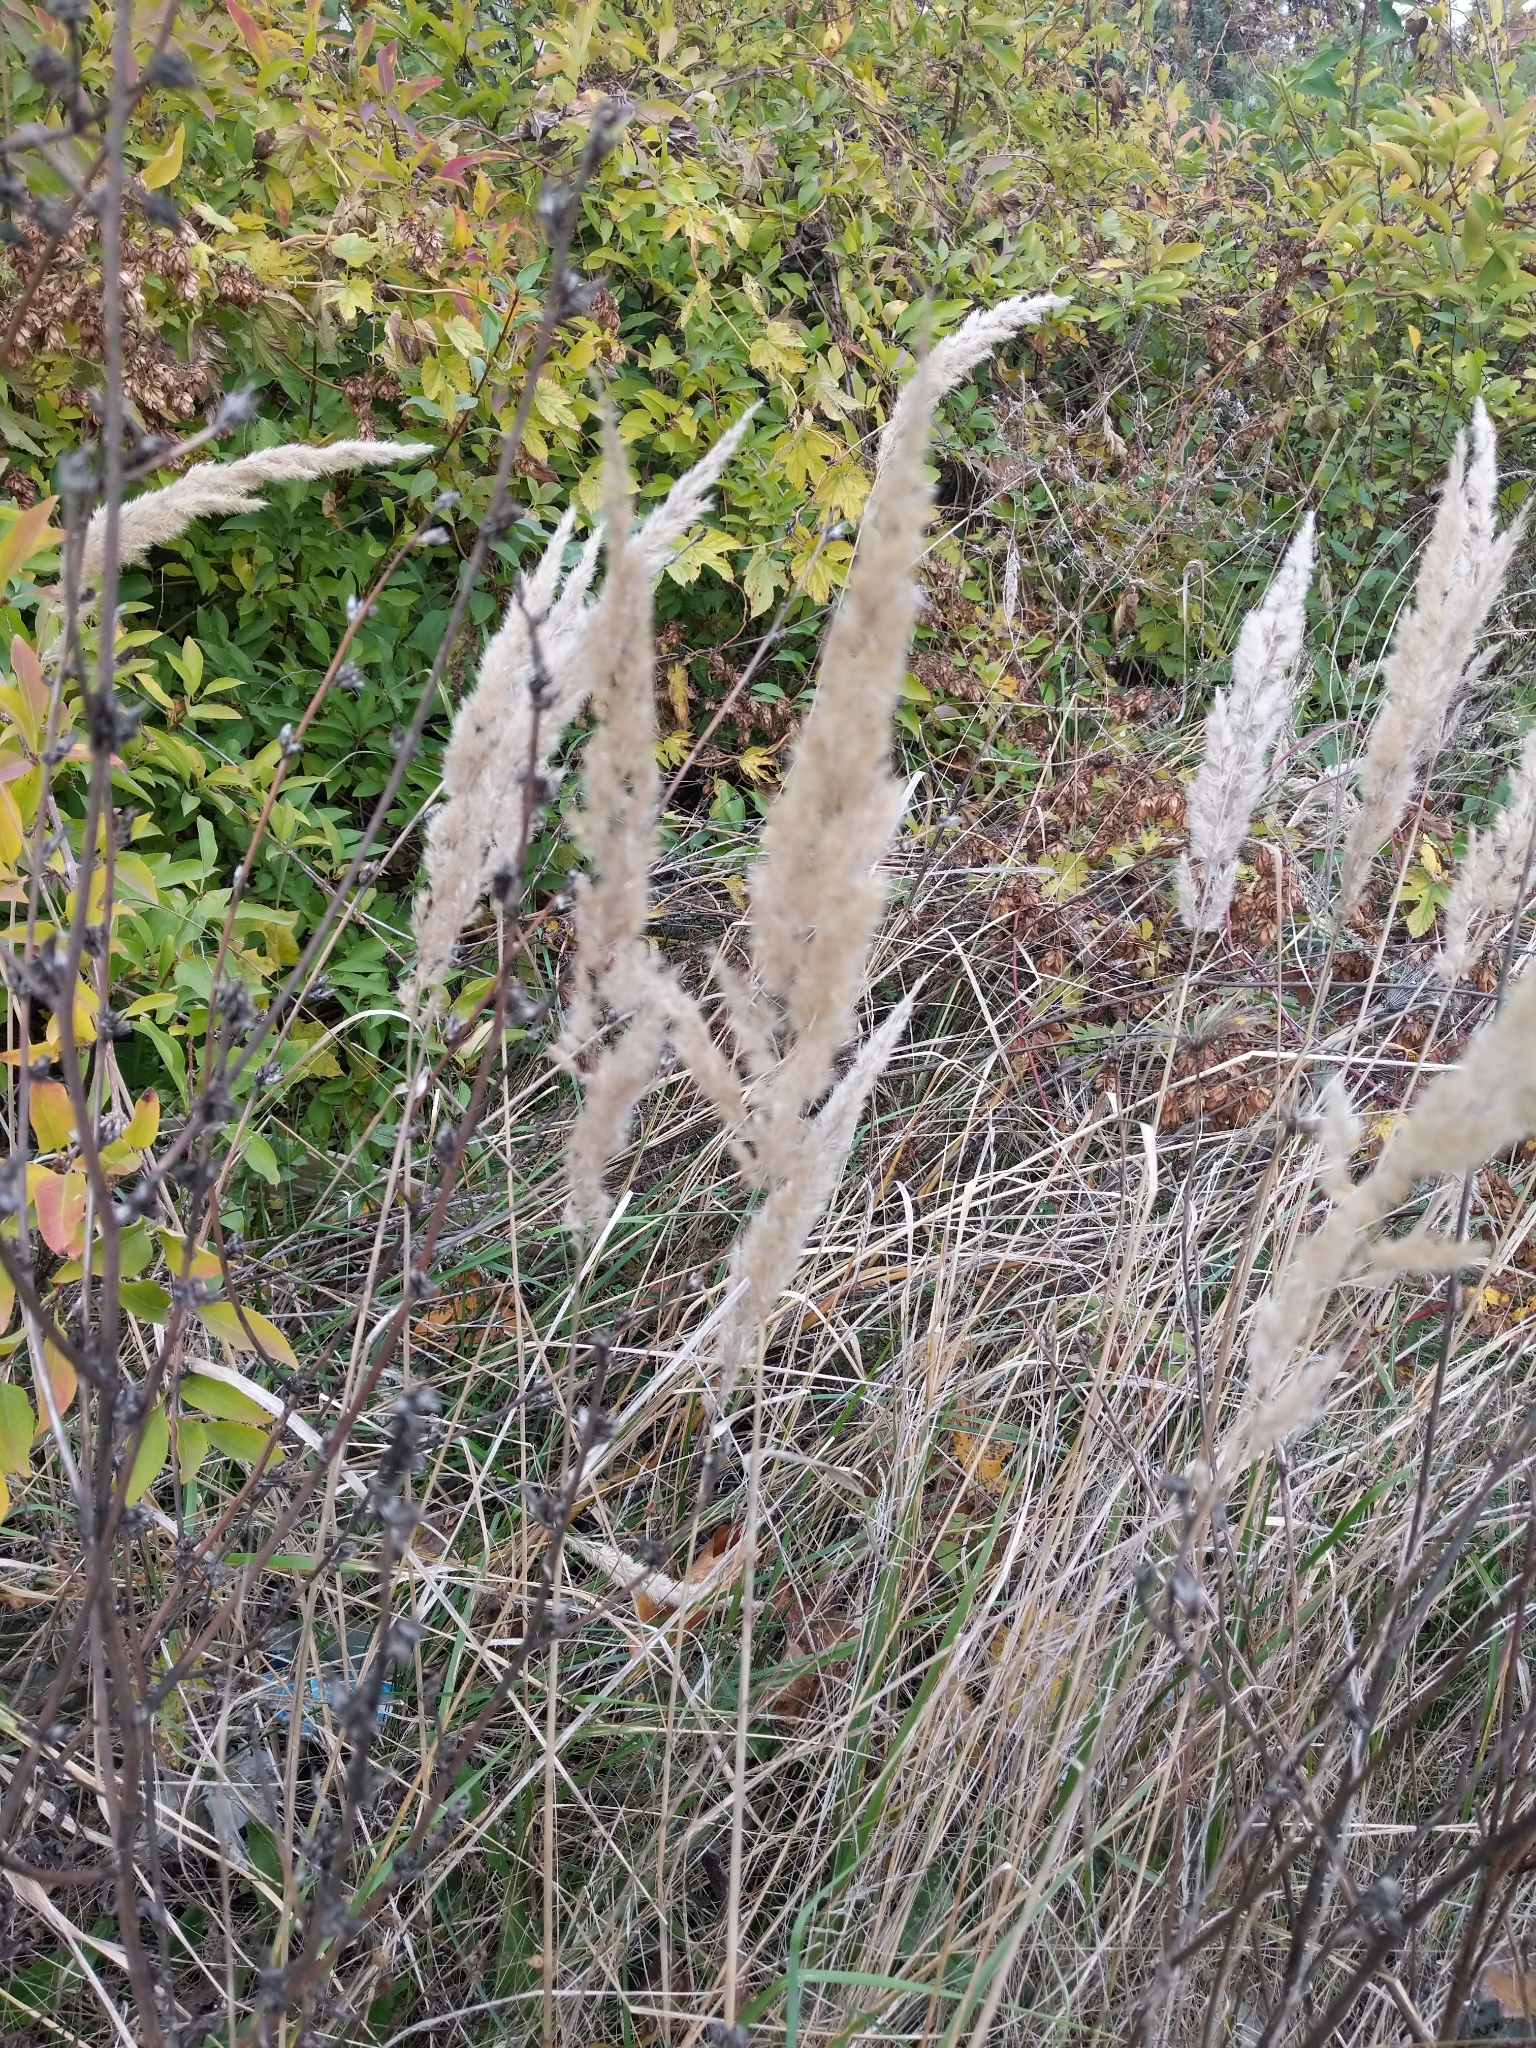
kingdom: Plantae
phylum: Tracheophyta
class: Liliopsida
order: Poales
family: Poaceae
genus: Calamagrostis
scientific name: Calamagrostis epigejos
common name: Wood small-reed
